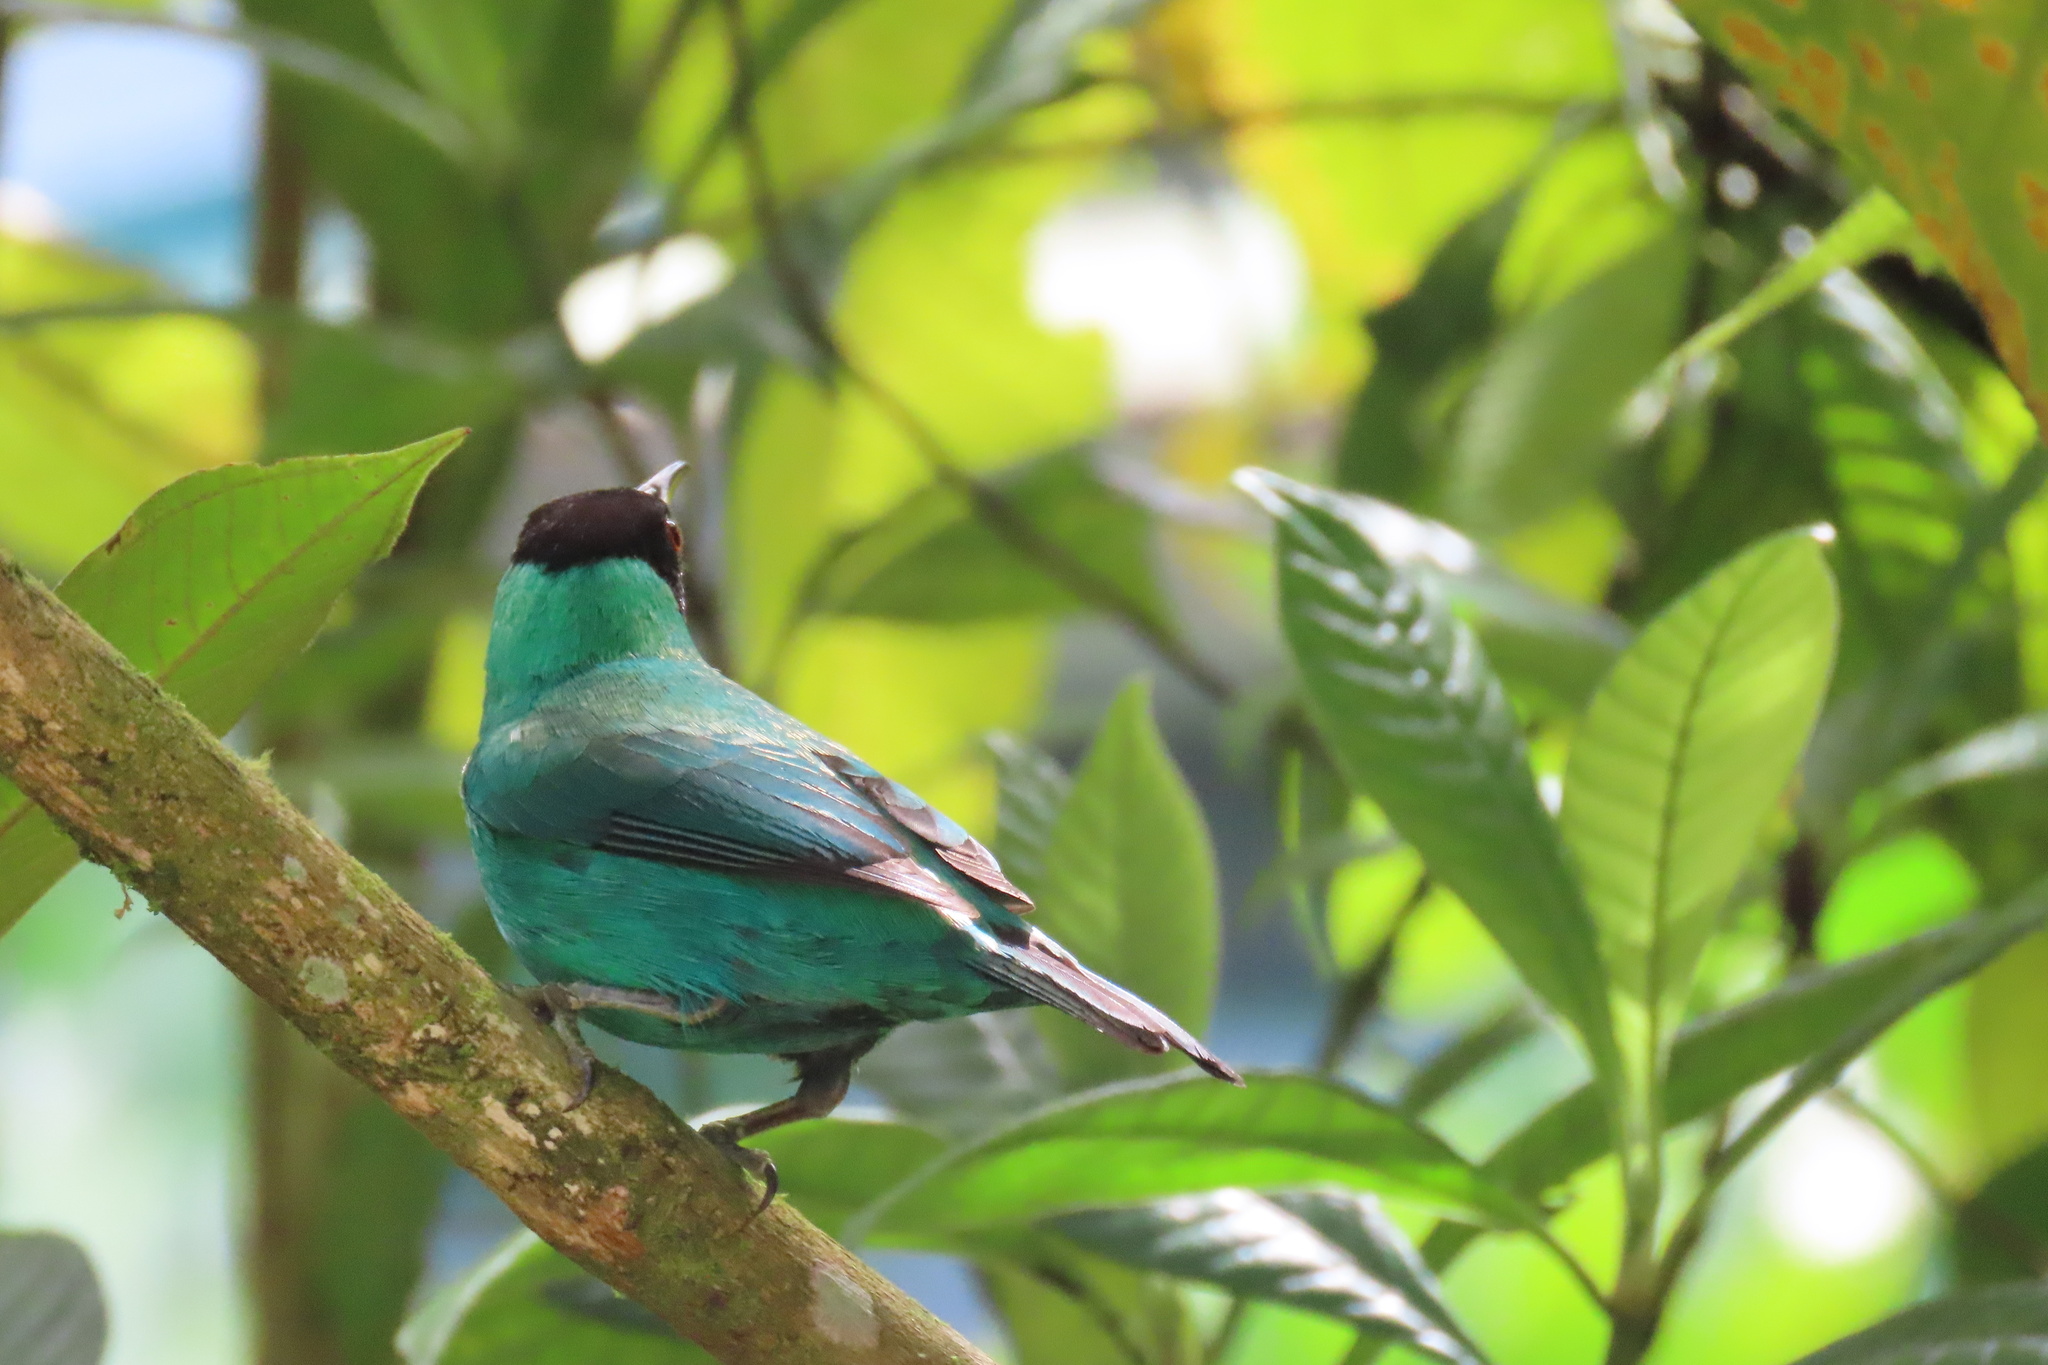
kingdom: Animalia
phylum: Chordata
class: Aves
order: Passeriformes
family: Thraupidae
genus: Chlorophanes
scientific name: Chlorophanes spiza
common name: Green honeycreeper
